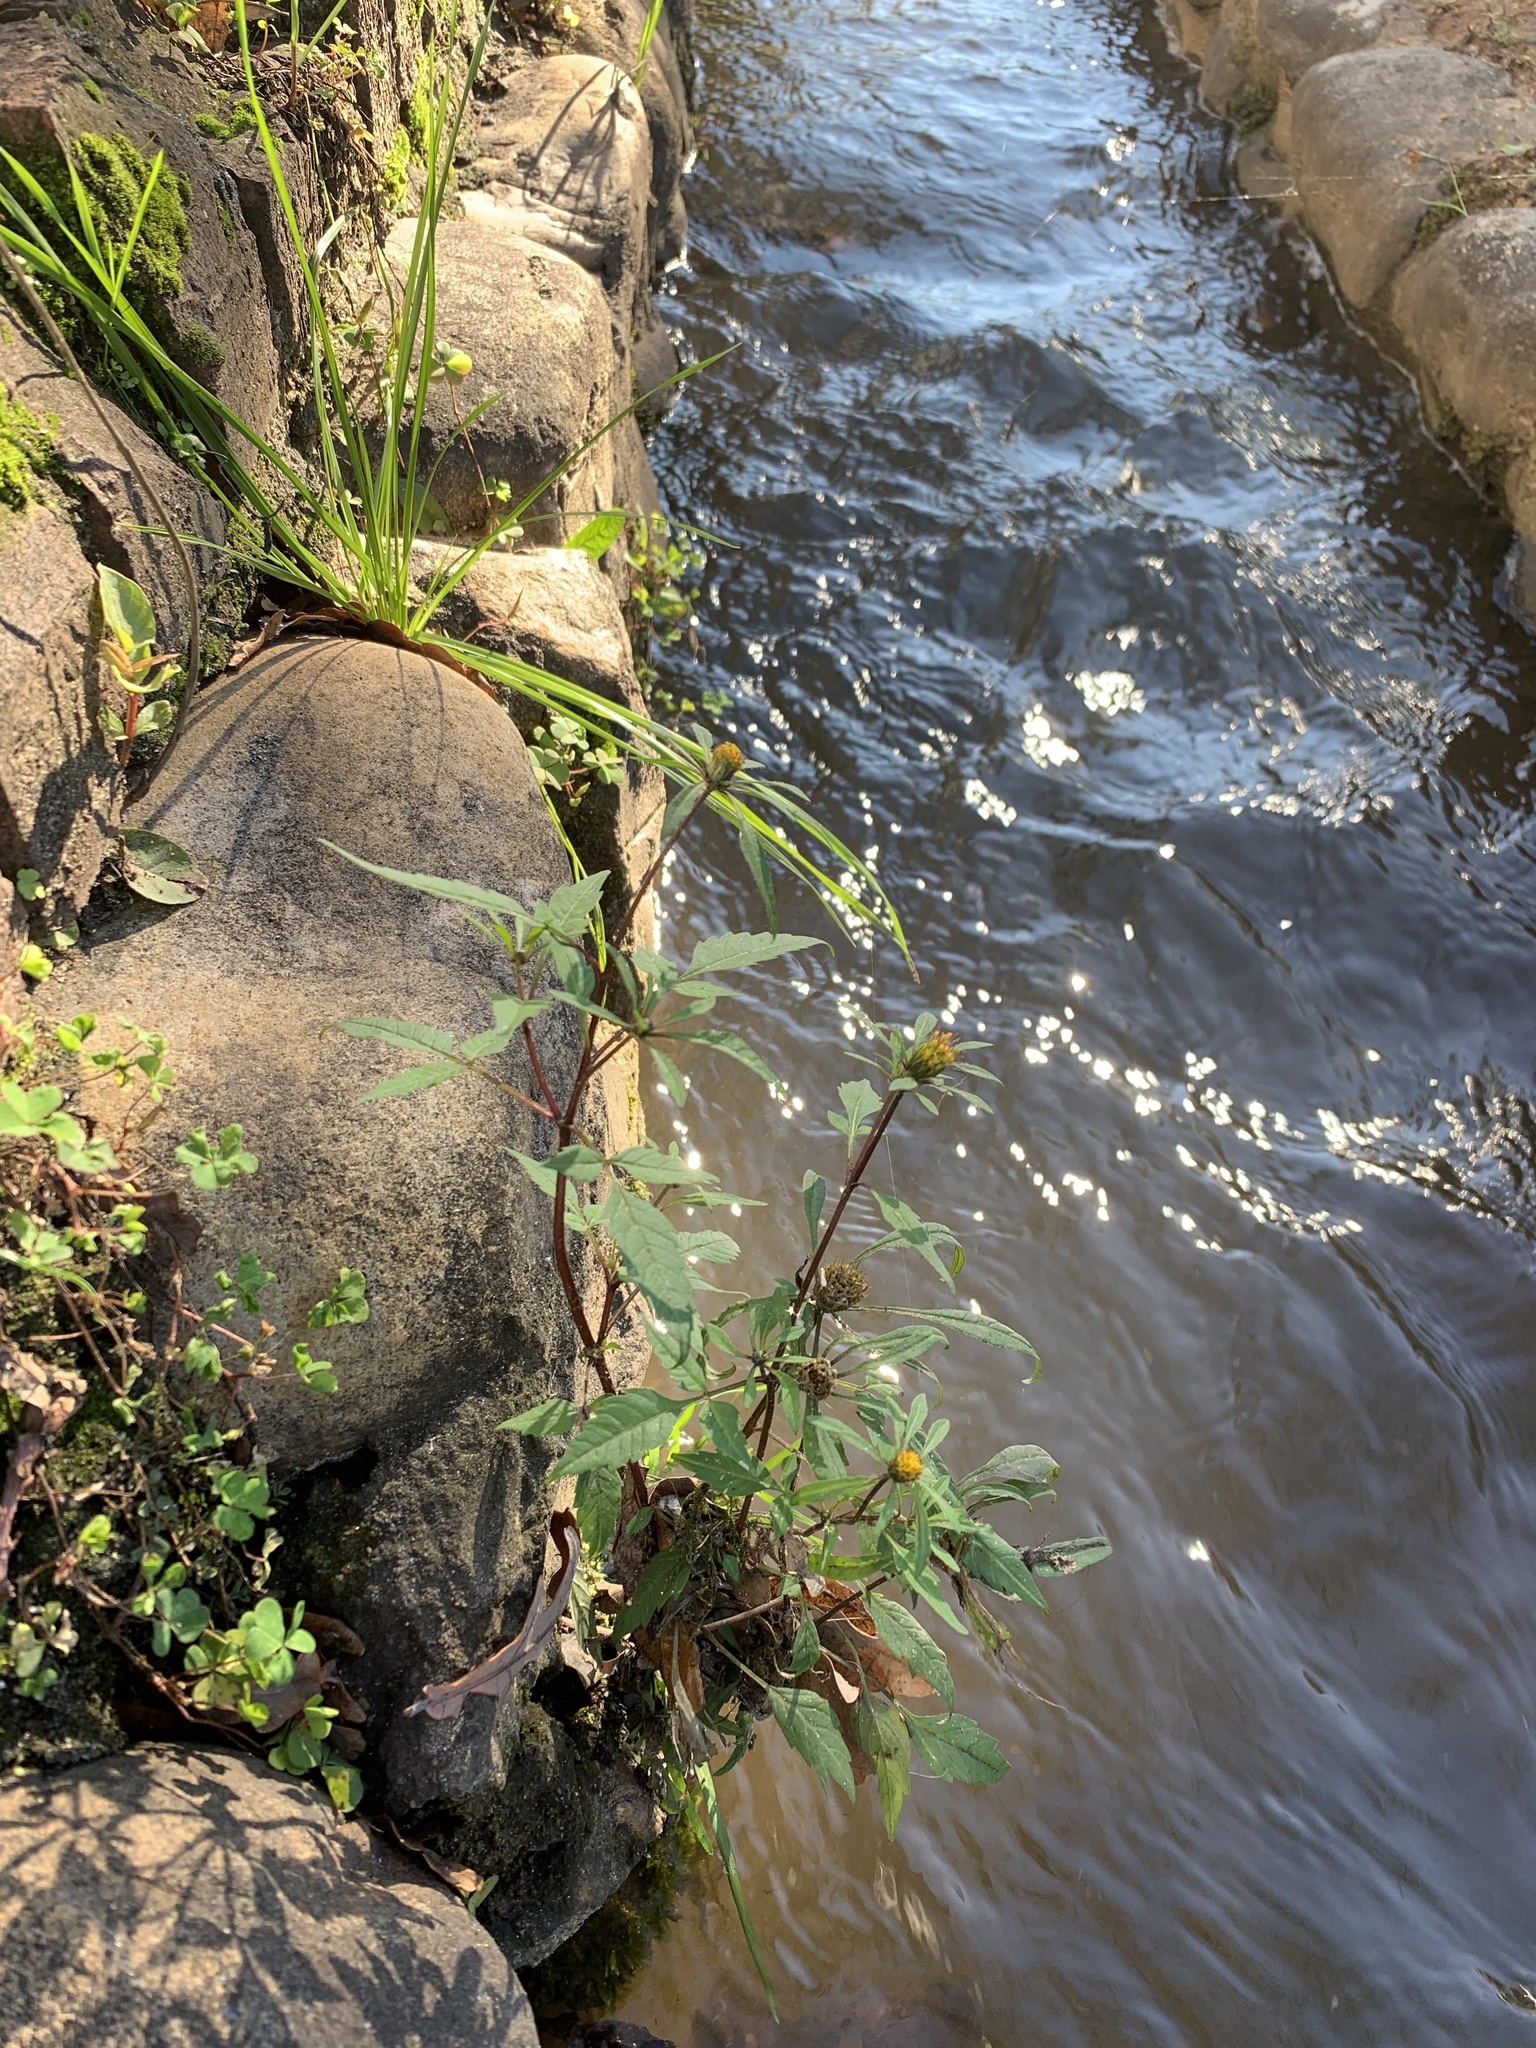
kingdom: Plantae
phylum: Tracheophyta
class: Magnoliopsida
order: Asterales
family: Asteraceae
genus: Bidens
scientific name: Bidens frondosa
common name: Beggarticks
